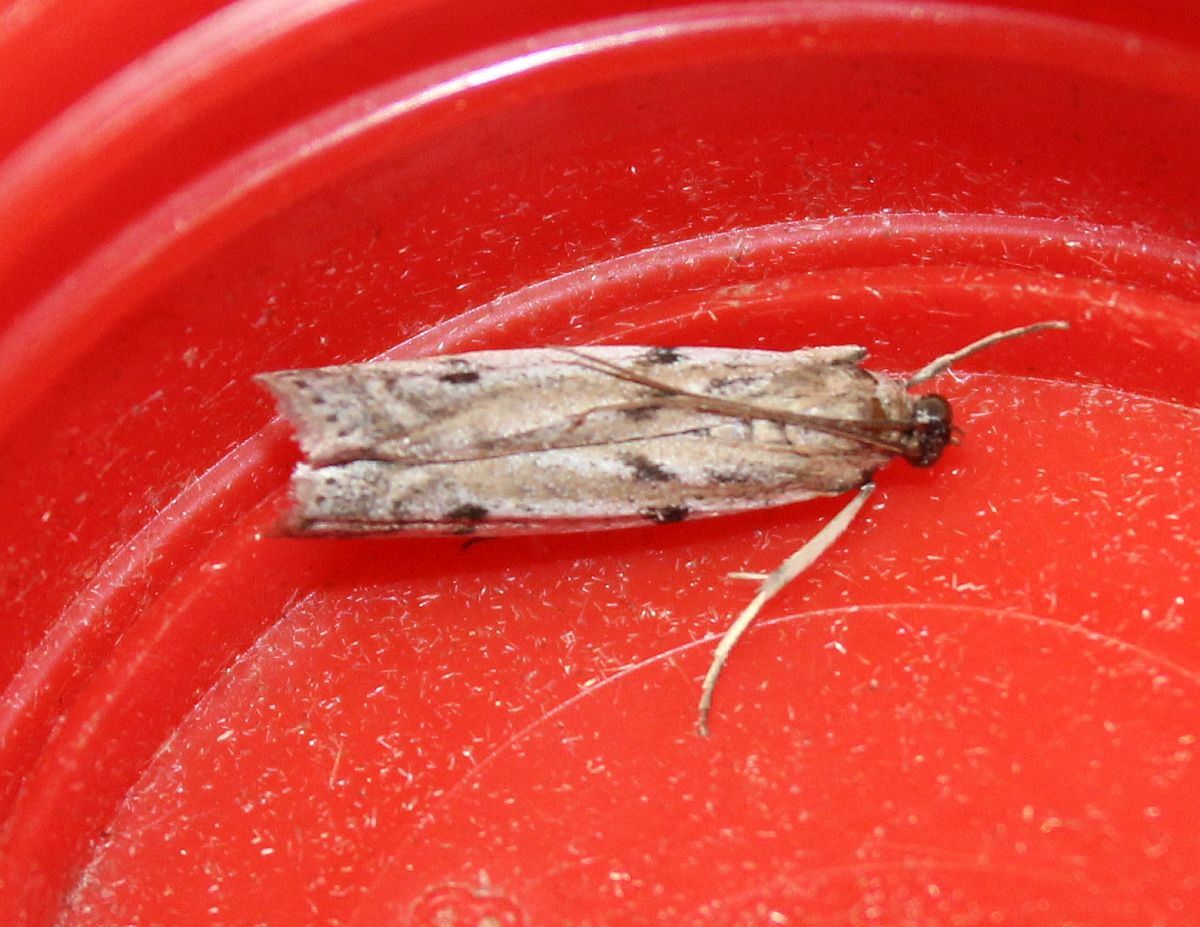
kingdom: Animalia
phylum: Arthropoda
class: Insecta
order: Lepidoptera
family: Pyralidae
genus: Phycitodes
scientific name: Phycitodes binaevella
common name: Ermine knot-horn
